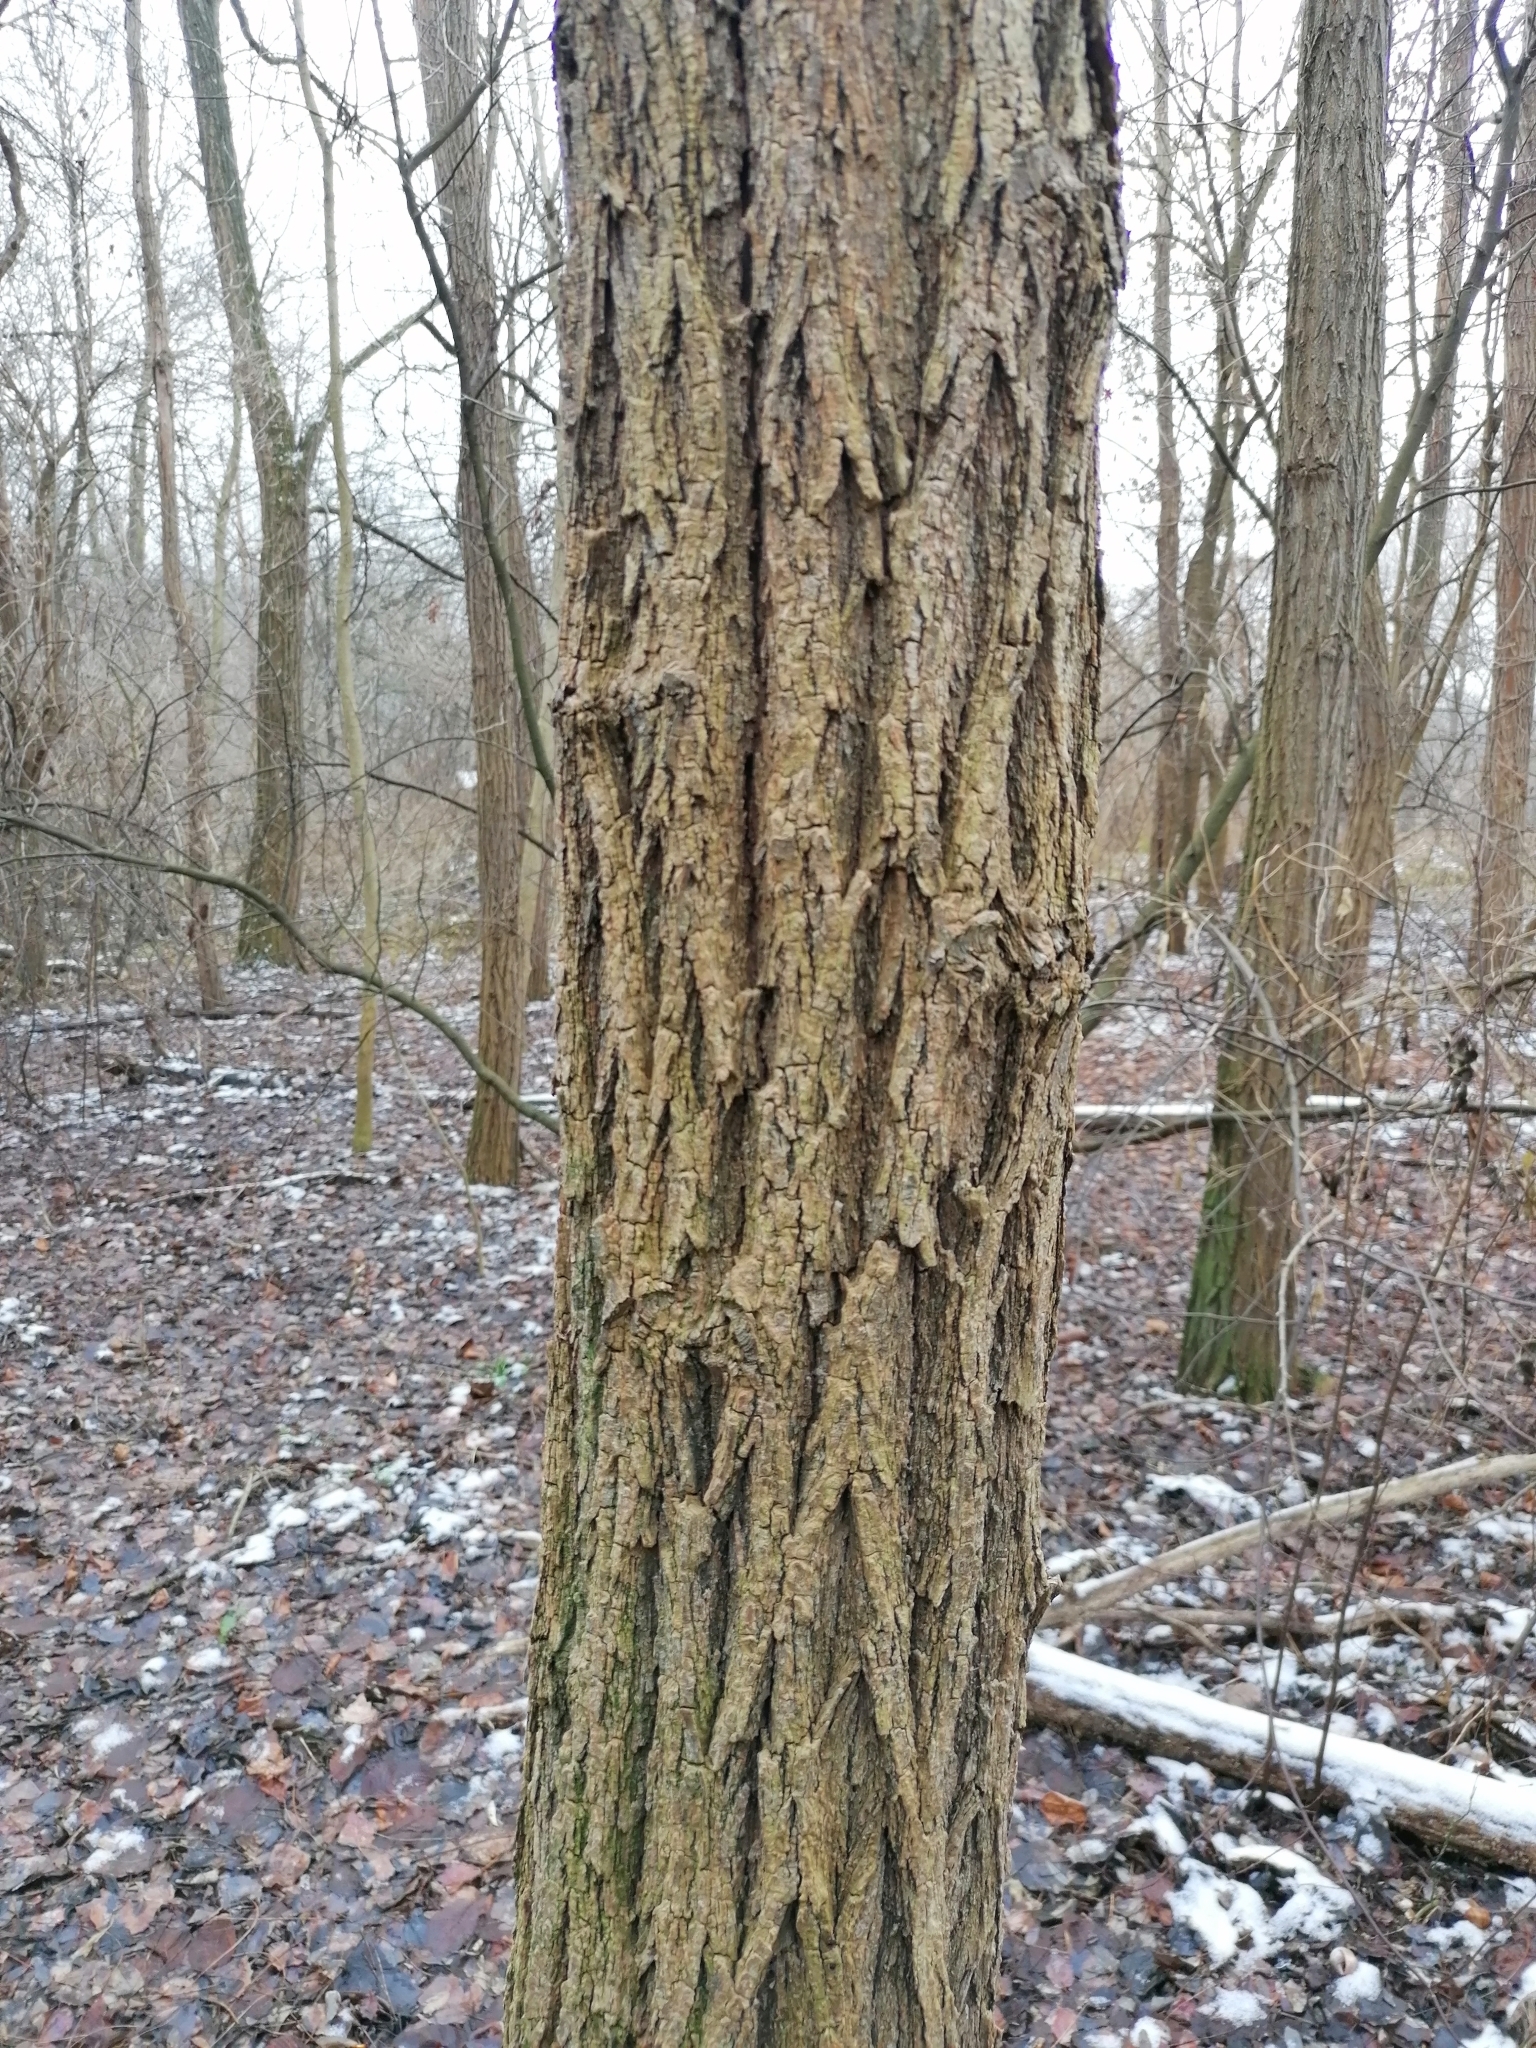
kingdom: Plantae
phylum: Tracheophyta
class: Magnoliopsida
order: Fabales
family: Fabaceae
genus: Robinia
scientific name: Robinia pseudoacacia
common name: Black locust
